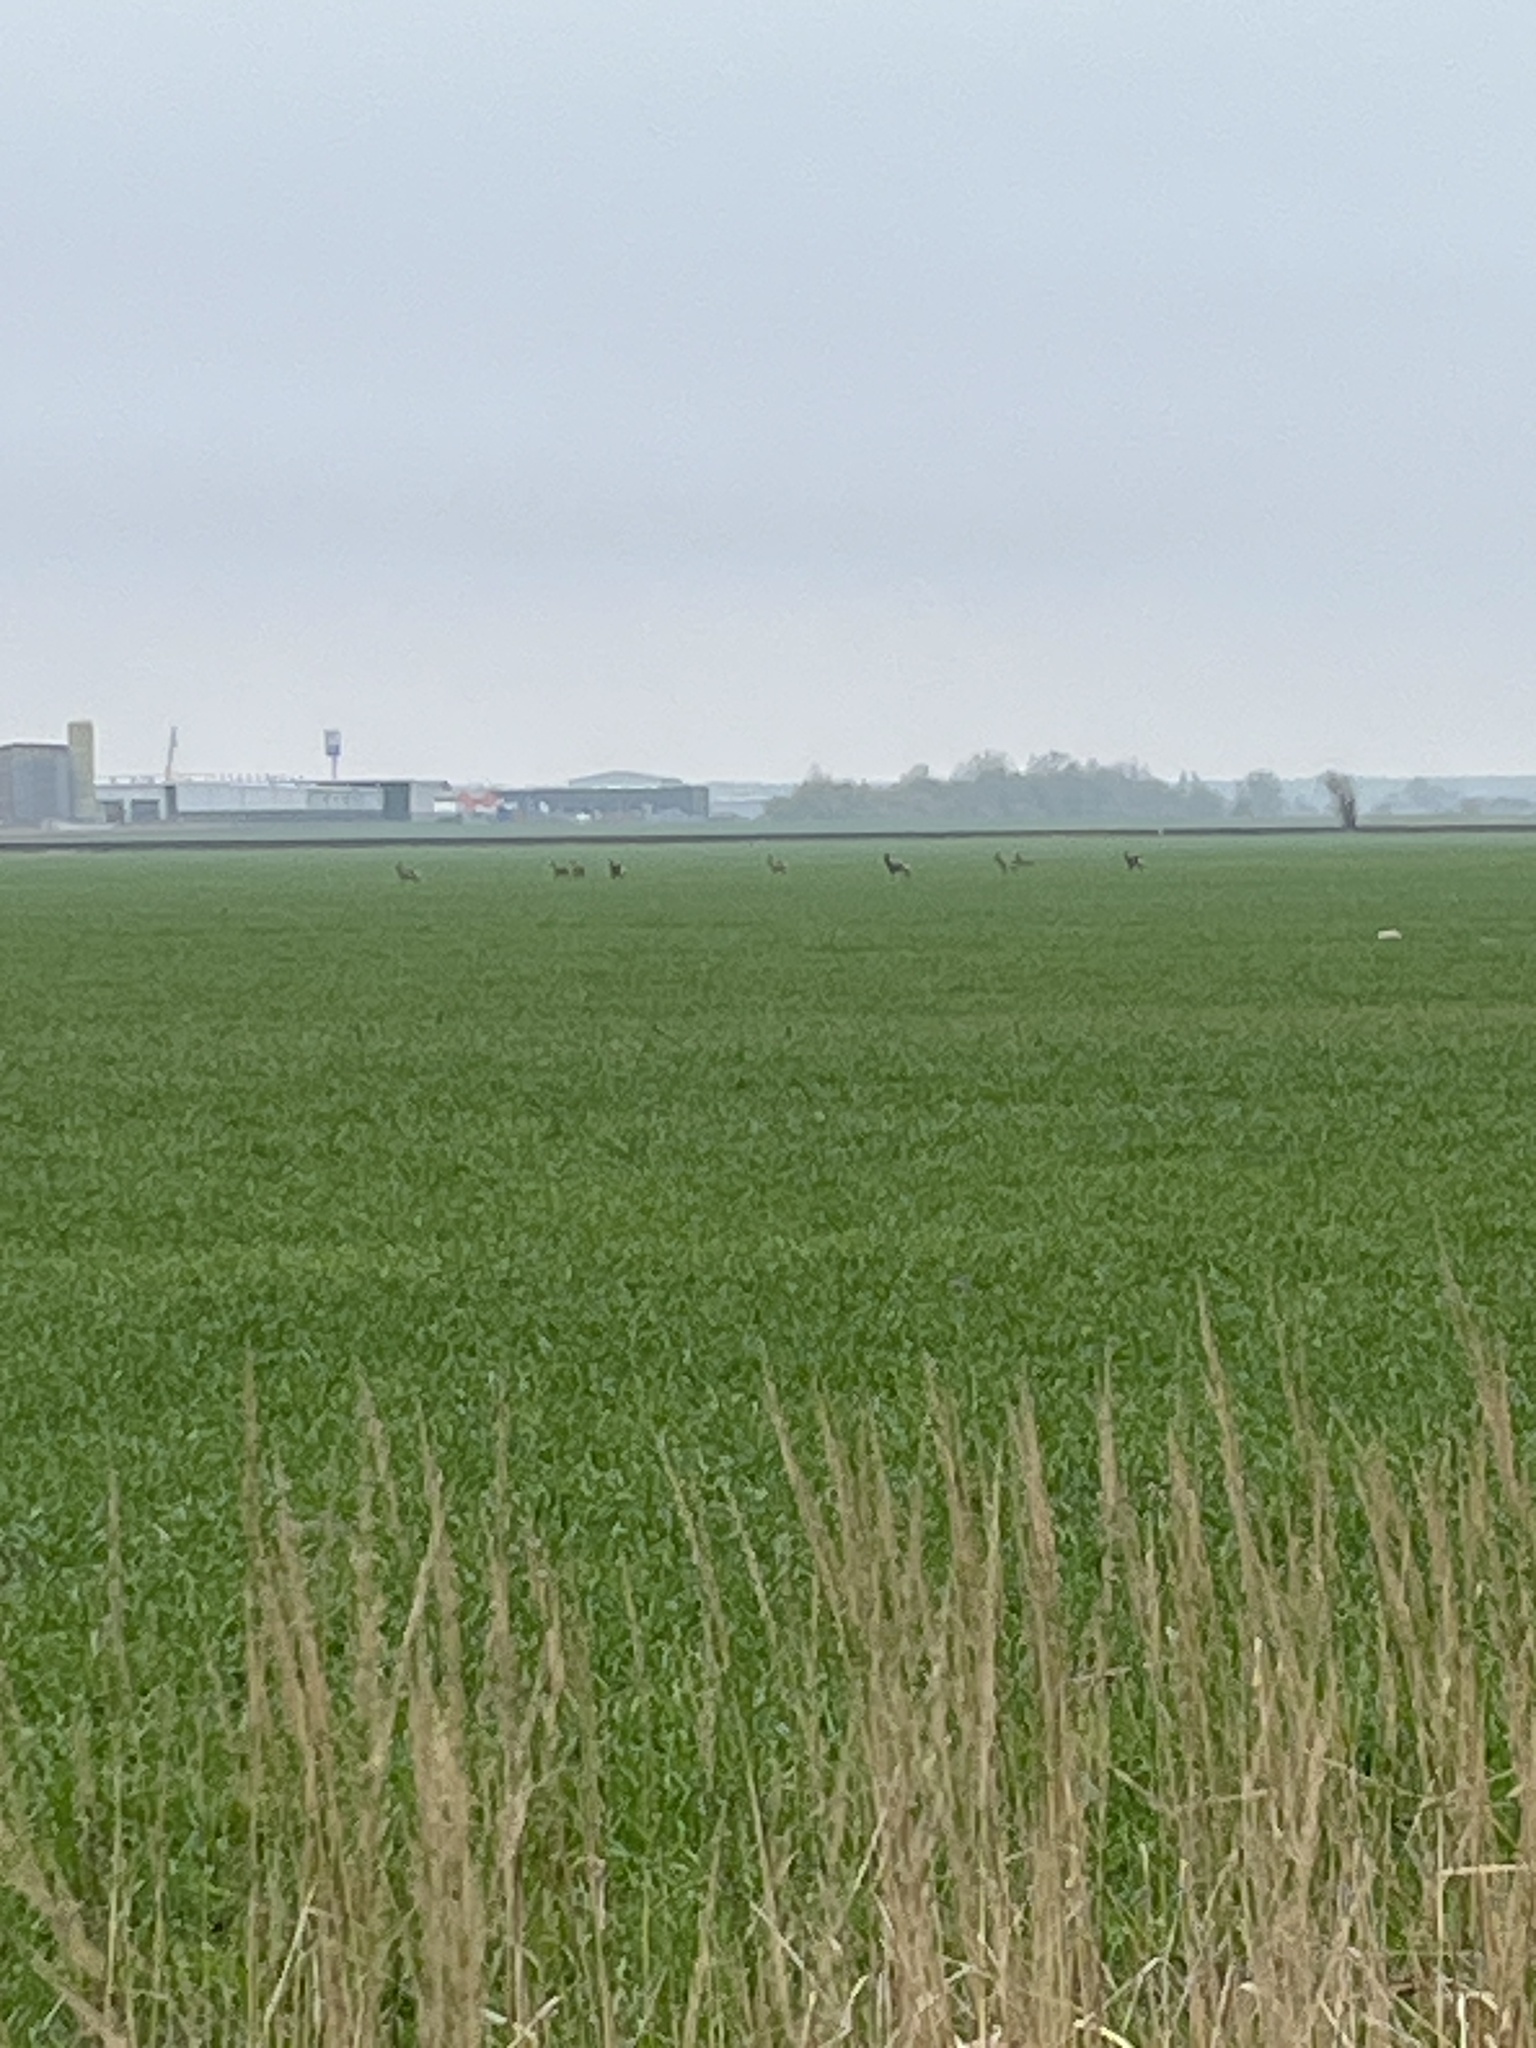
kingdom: Animalia
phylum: Chordata
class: Mammalia
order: Artiodactyla
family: Cervidae
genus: Capreolus
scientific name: Capreolus capreolus
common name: Western roe deer
